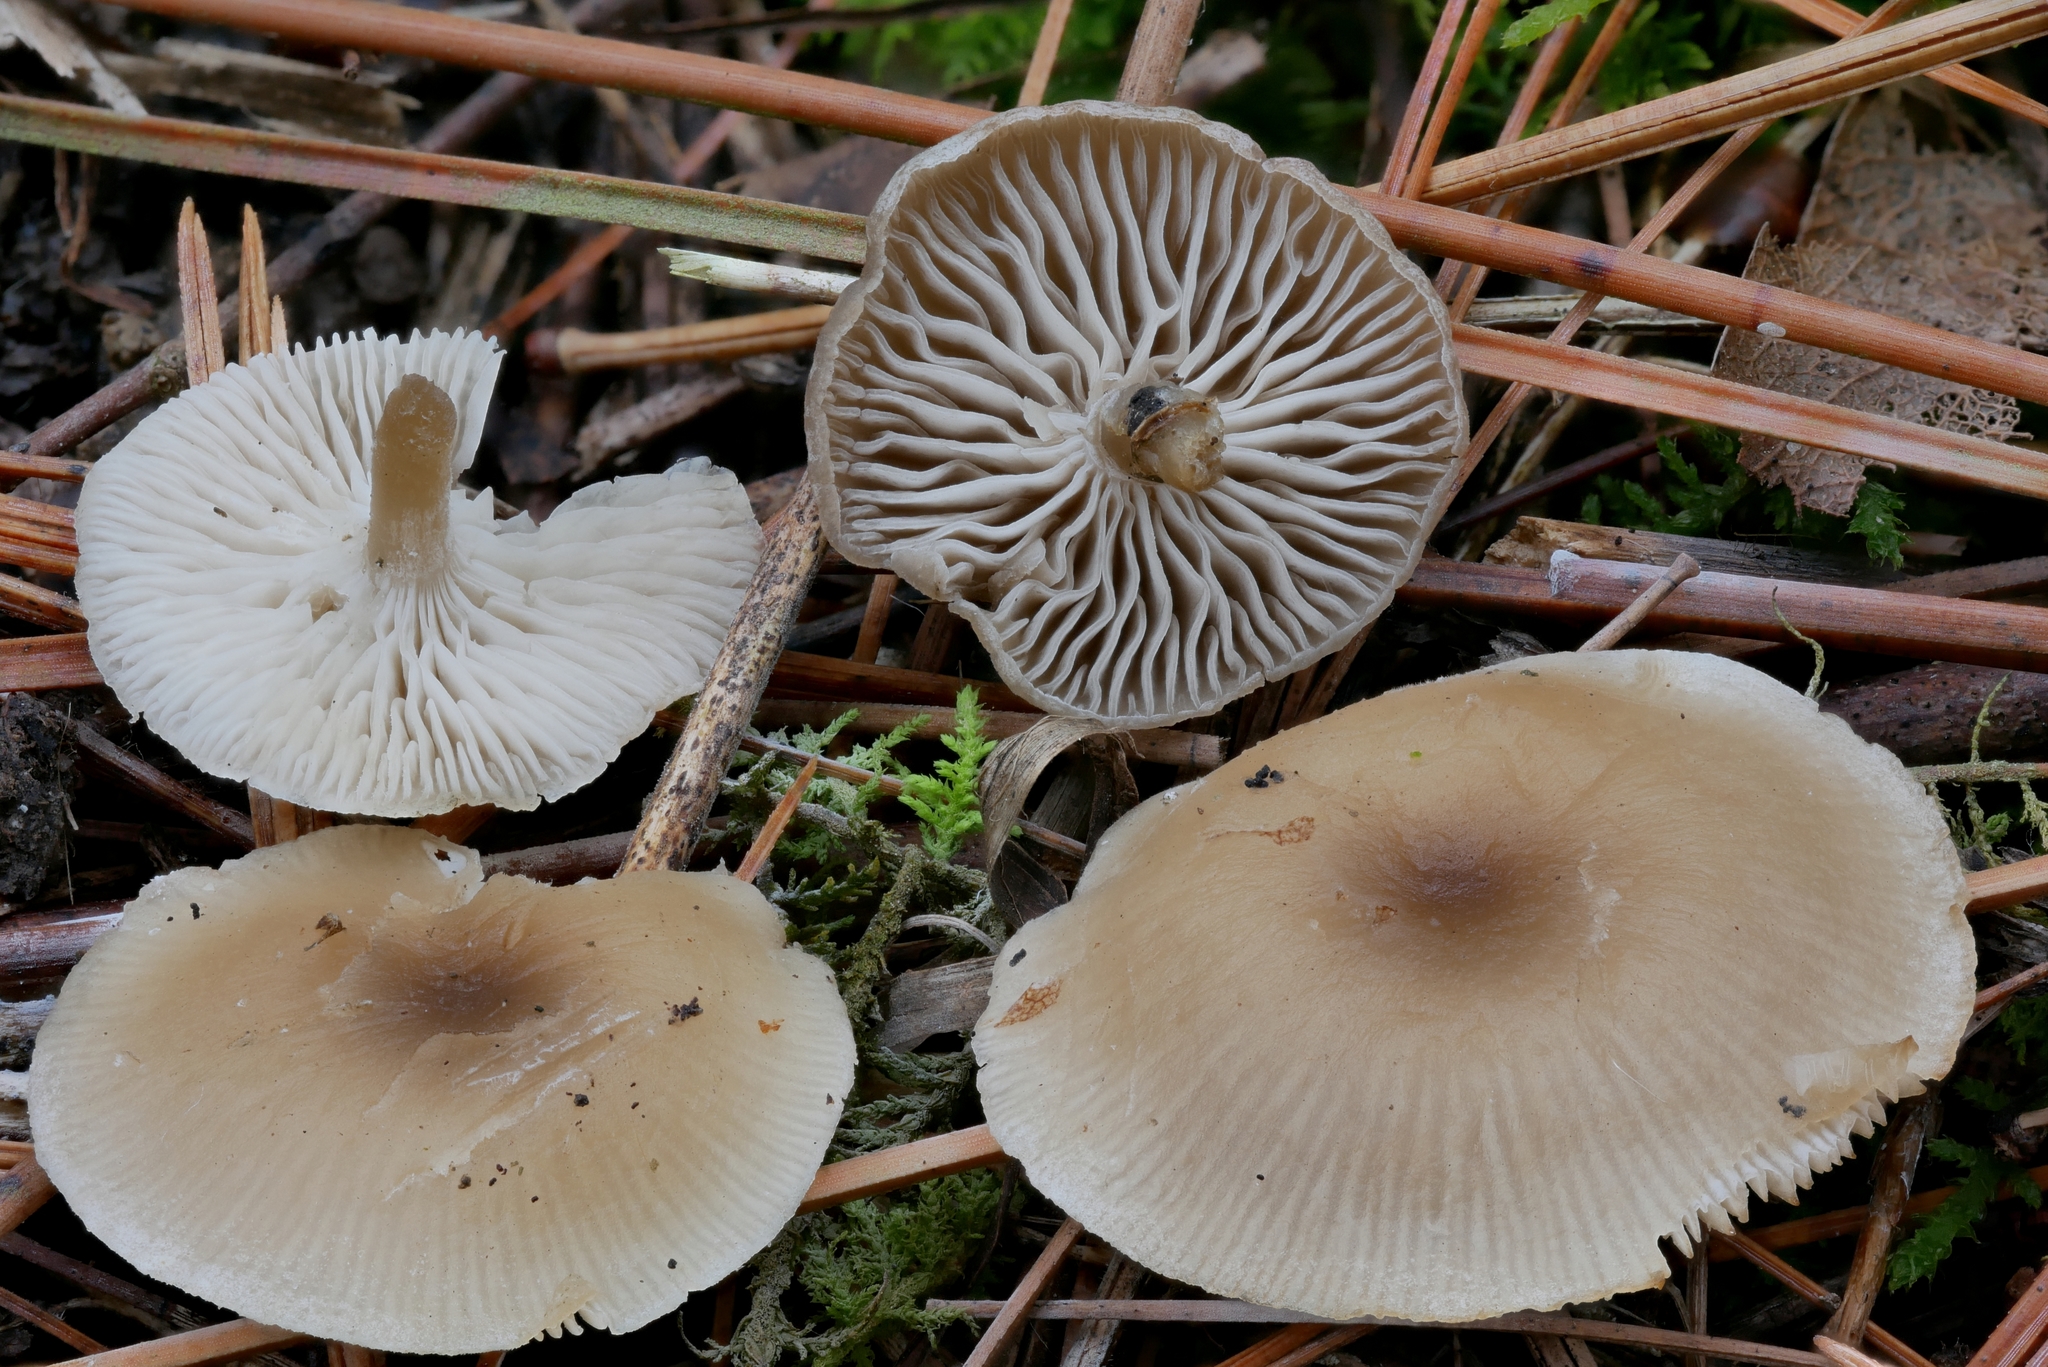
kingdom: Fungi
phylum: Basidiomycota
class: Agaricomycetes
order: Agaricales
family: Tricholomataceae
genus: Pseudolyophyllum
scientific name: Pseudolyophyllum
